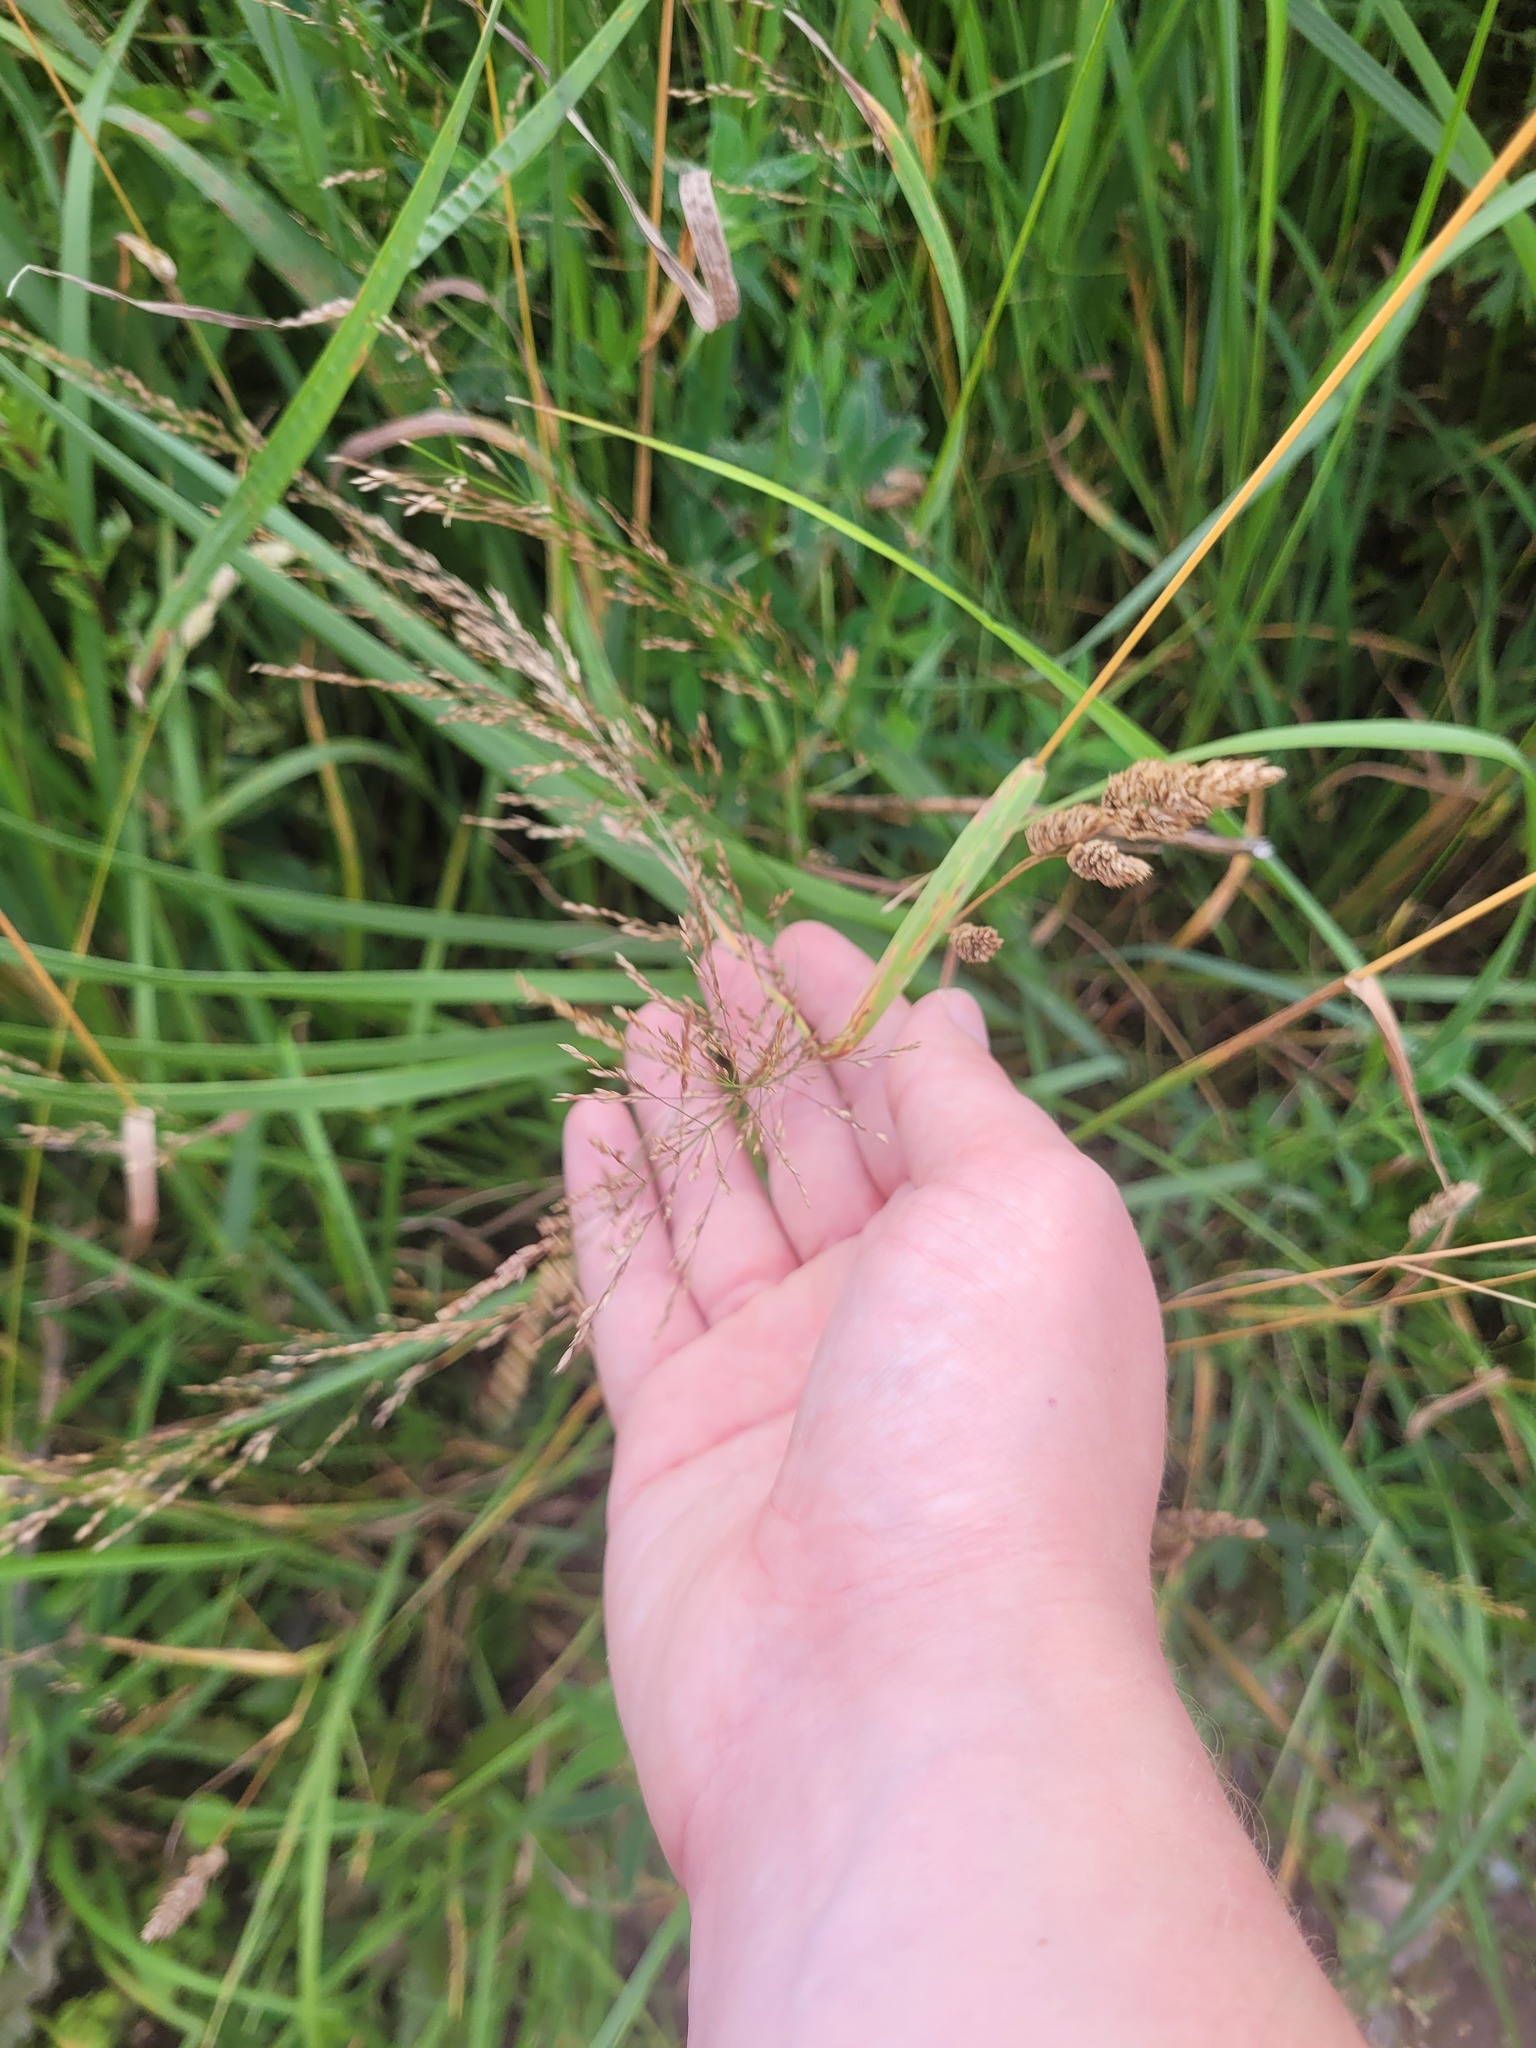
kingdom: Plantae
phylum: Tracheophyta
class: Liliopsida
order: Poales
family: Poaceae
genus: Poa
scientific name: Poa palustris
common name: Swamp meadow-grass
